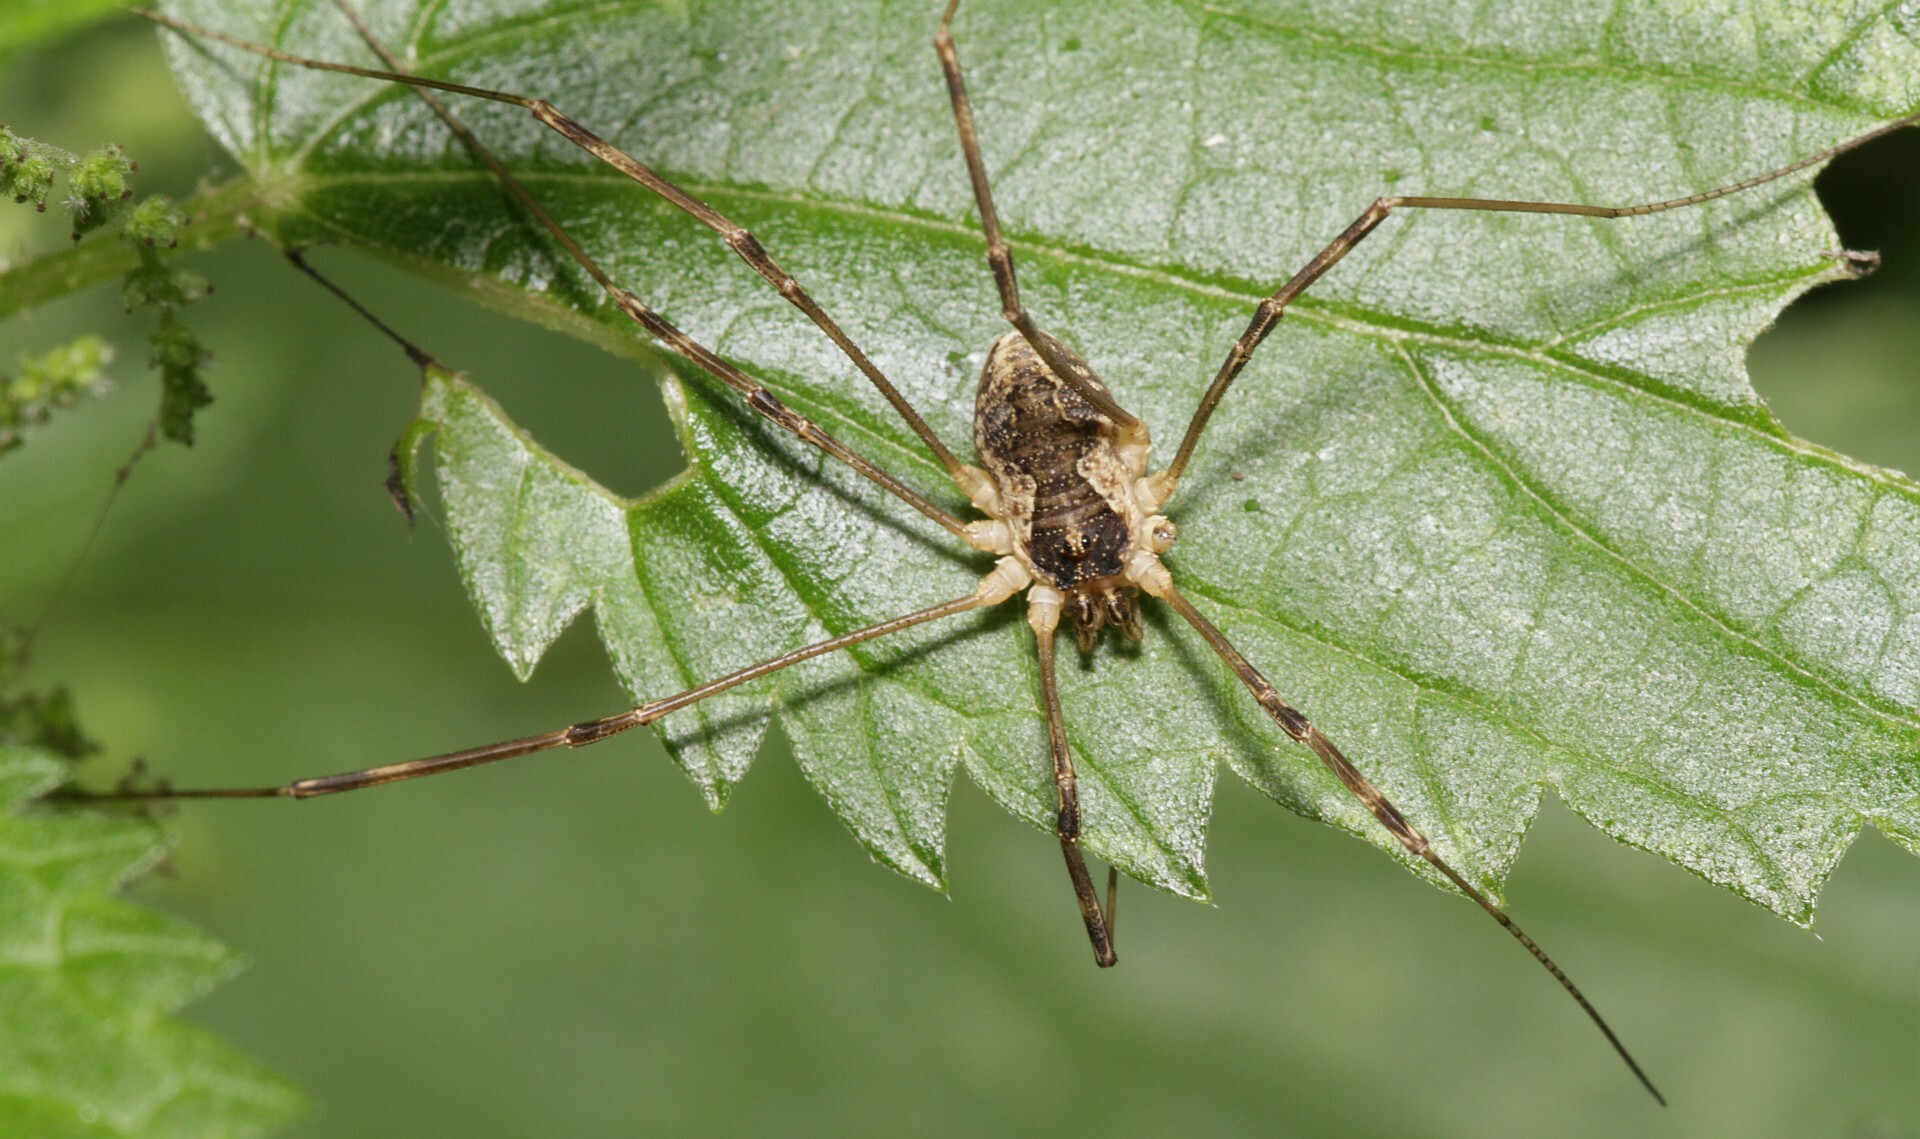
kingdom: Animalia
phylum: Arthropoda
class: Arachnida
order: Opiliones
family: Phalangiidae
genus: Mitopus
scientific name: Mitopus morio
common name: Saddleback harvestman
